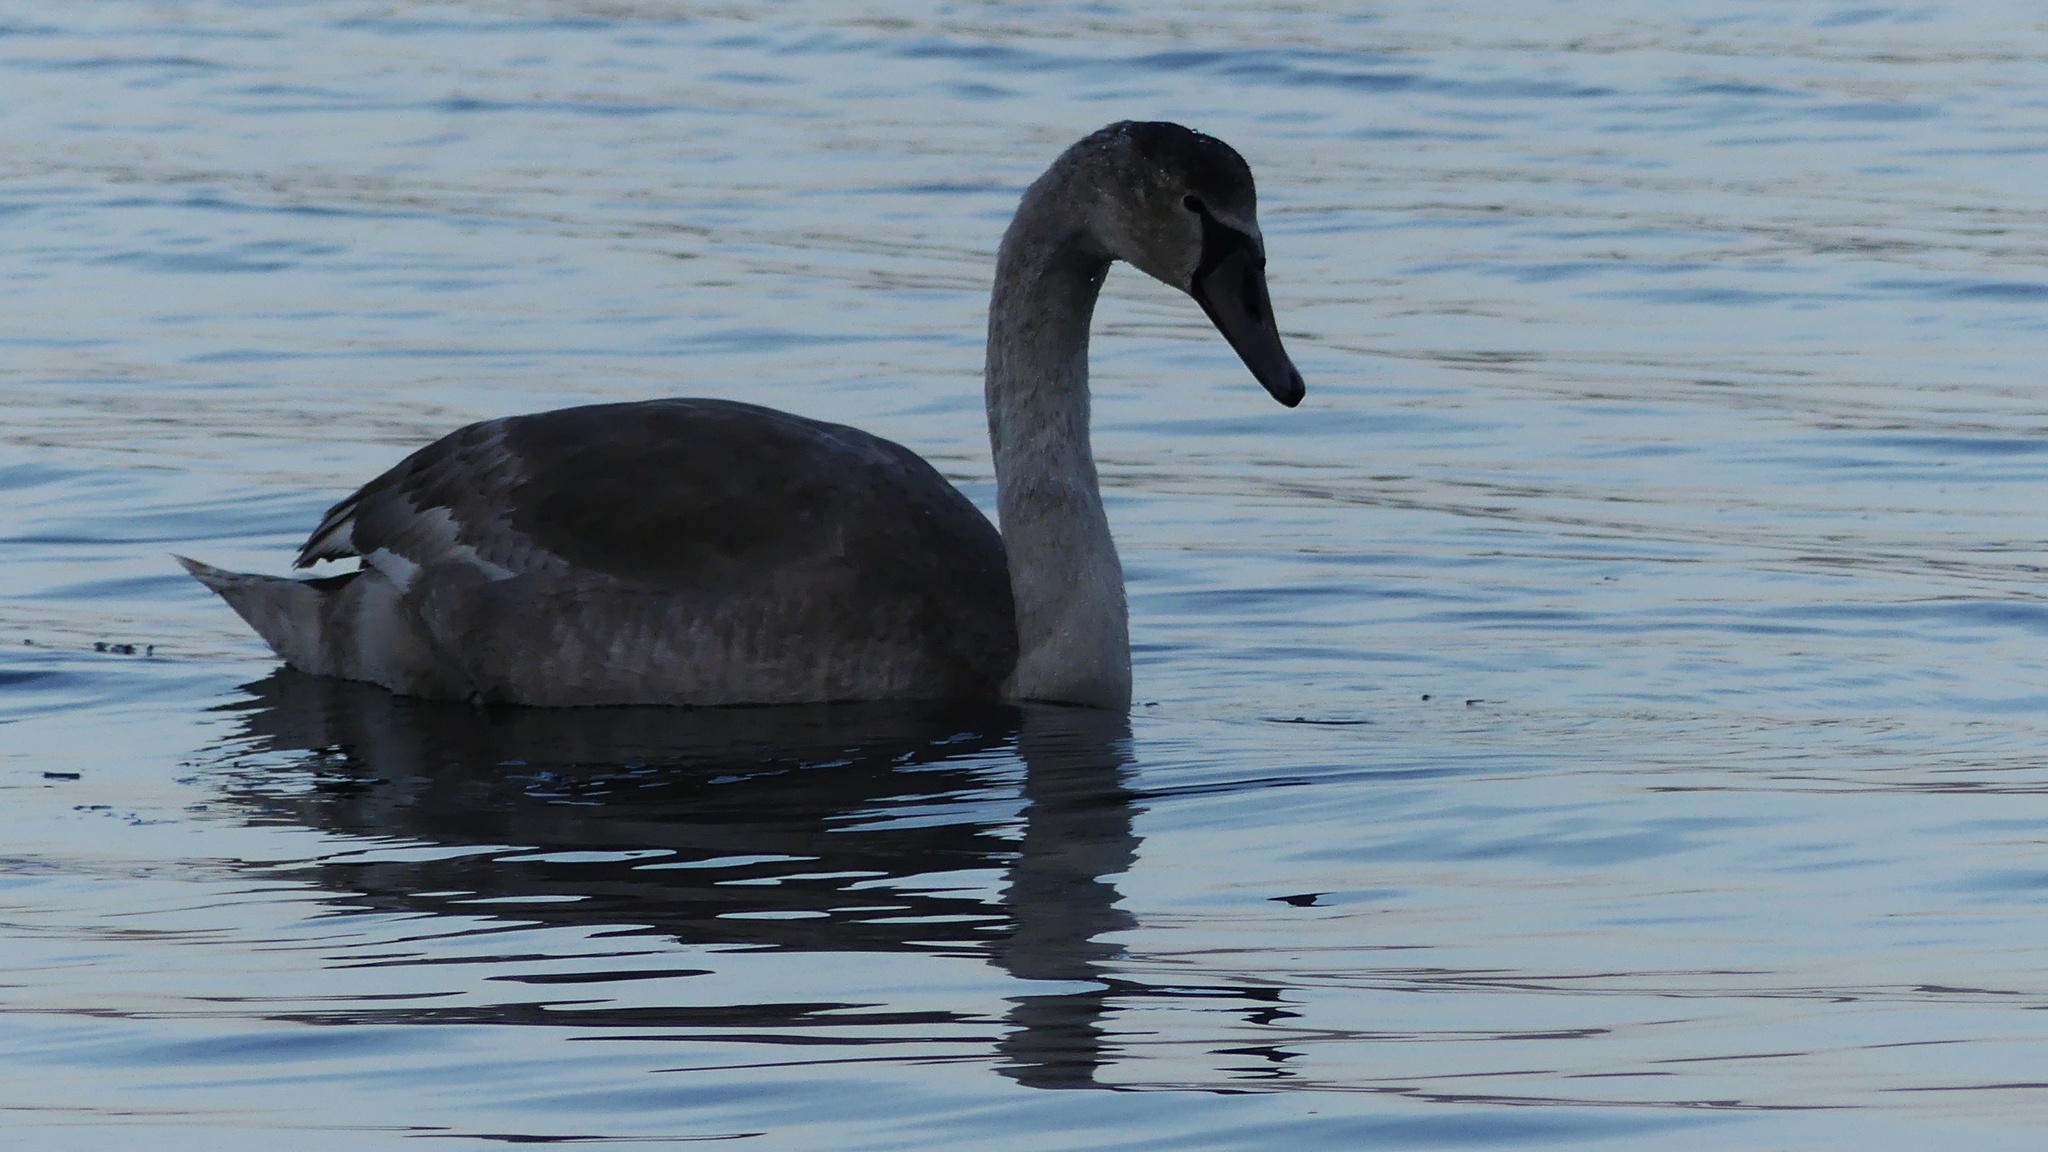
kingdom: Animalia
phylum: Chordata
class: Aves
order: Anseriformes
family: Anatidae
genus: Cygnus
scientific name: Cygnus olor
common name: Mute swan
